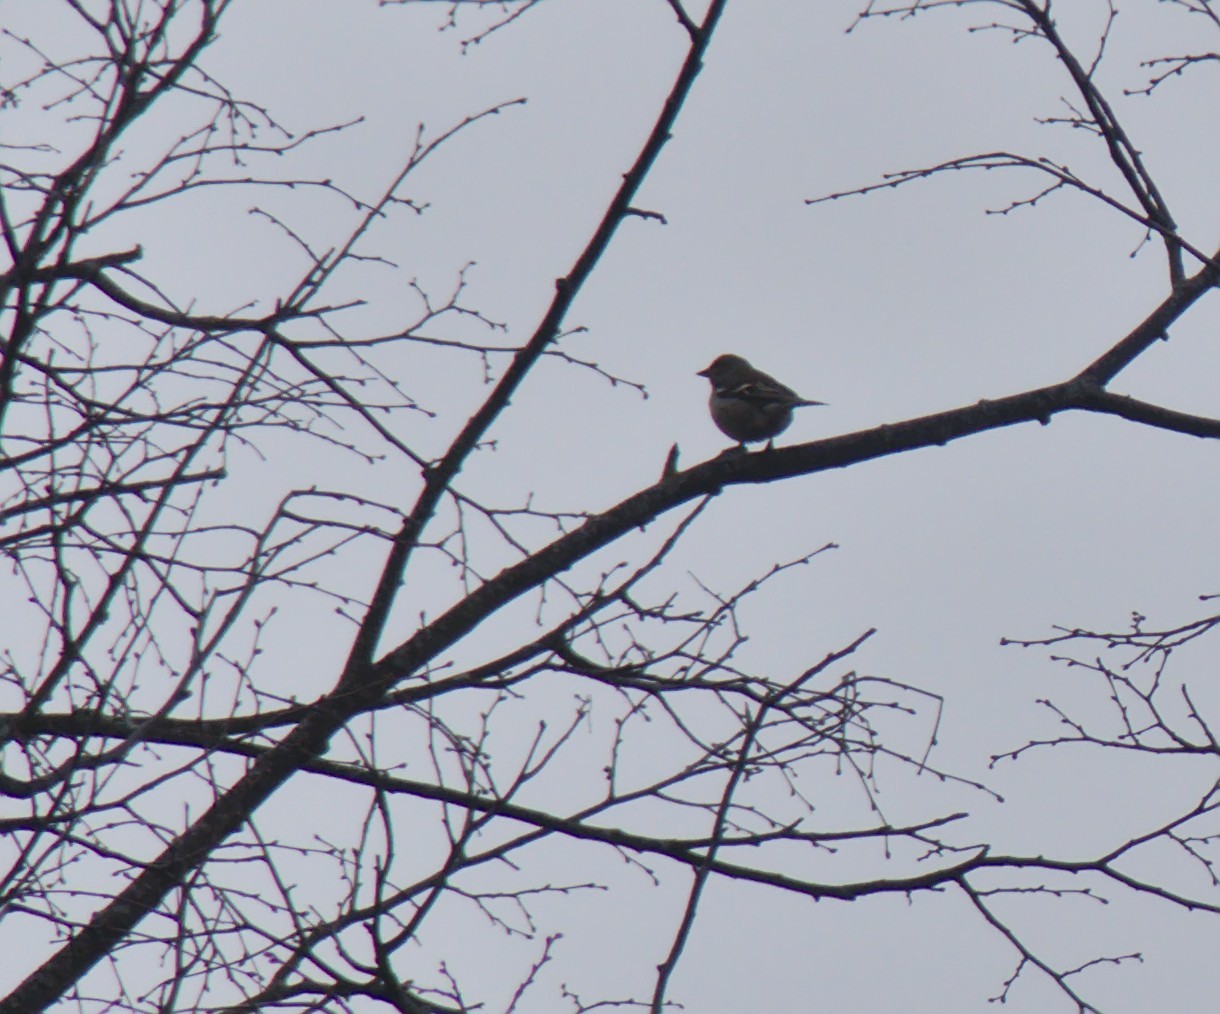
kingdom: Animalia
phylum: Chordata
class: Aves
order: Passeriformes
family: Fringillidae
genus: Fringilla
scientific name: Fringilla coelebs
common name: Common chaffinch
